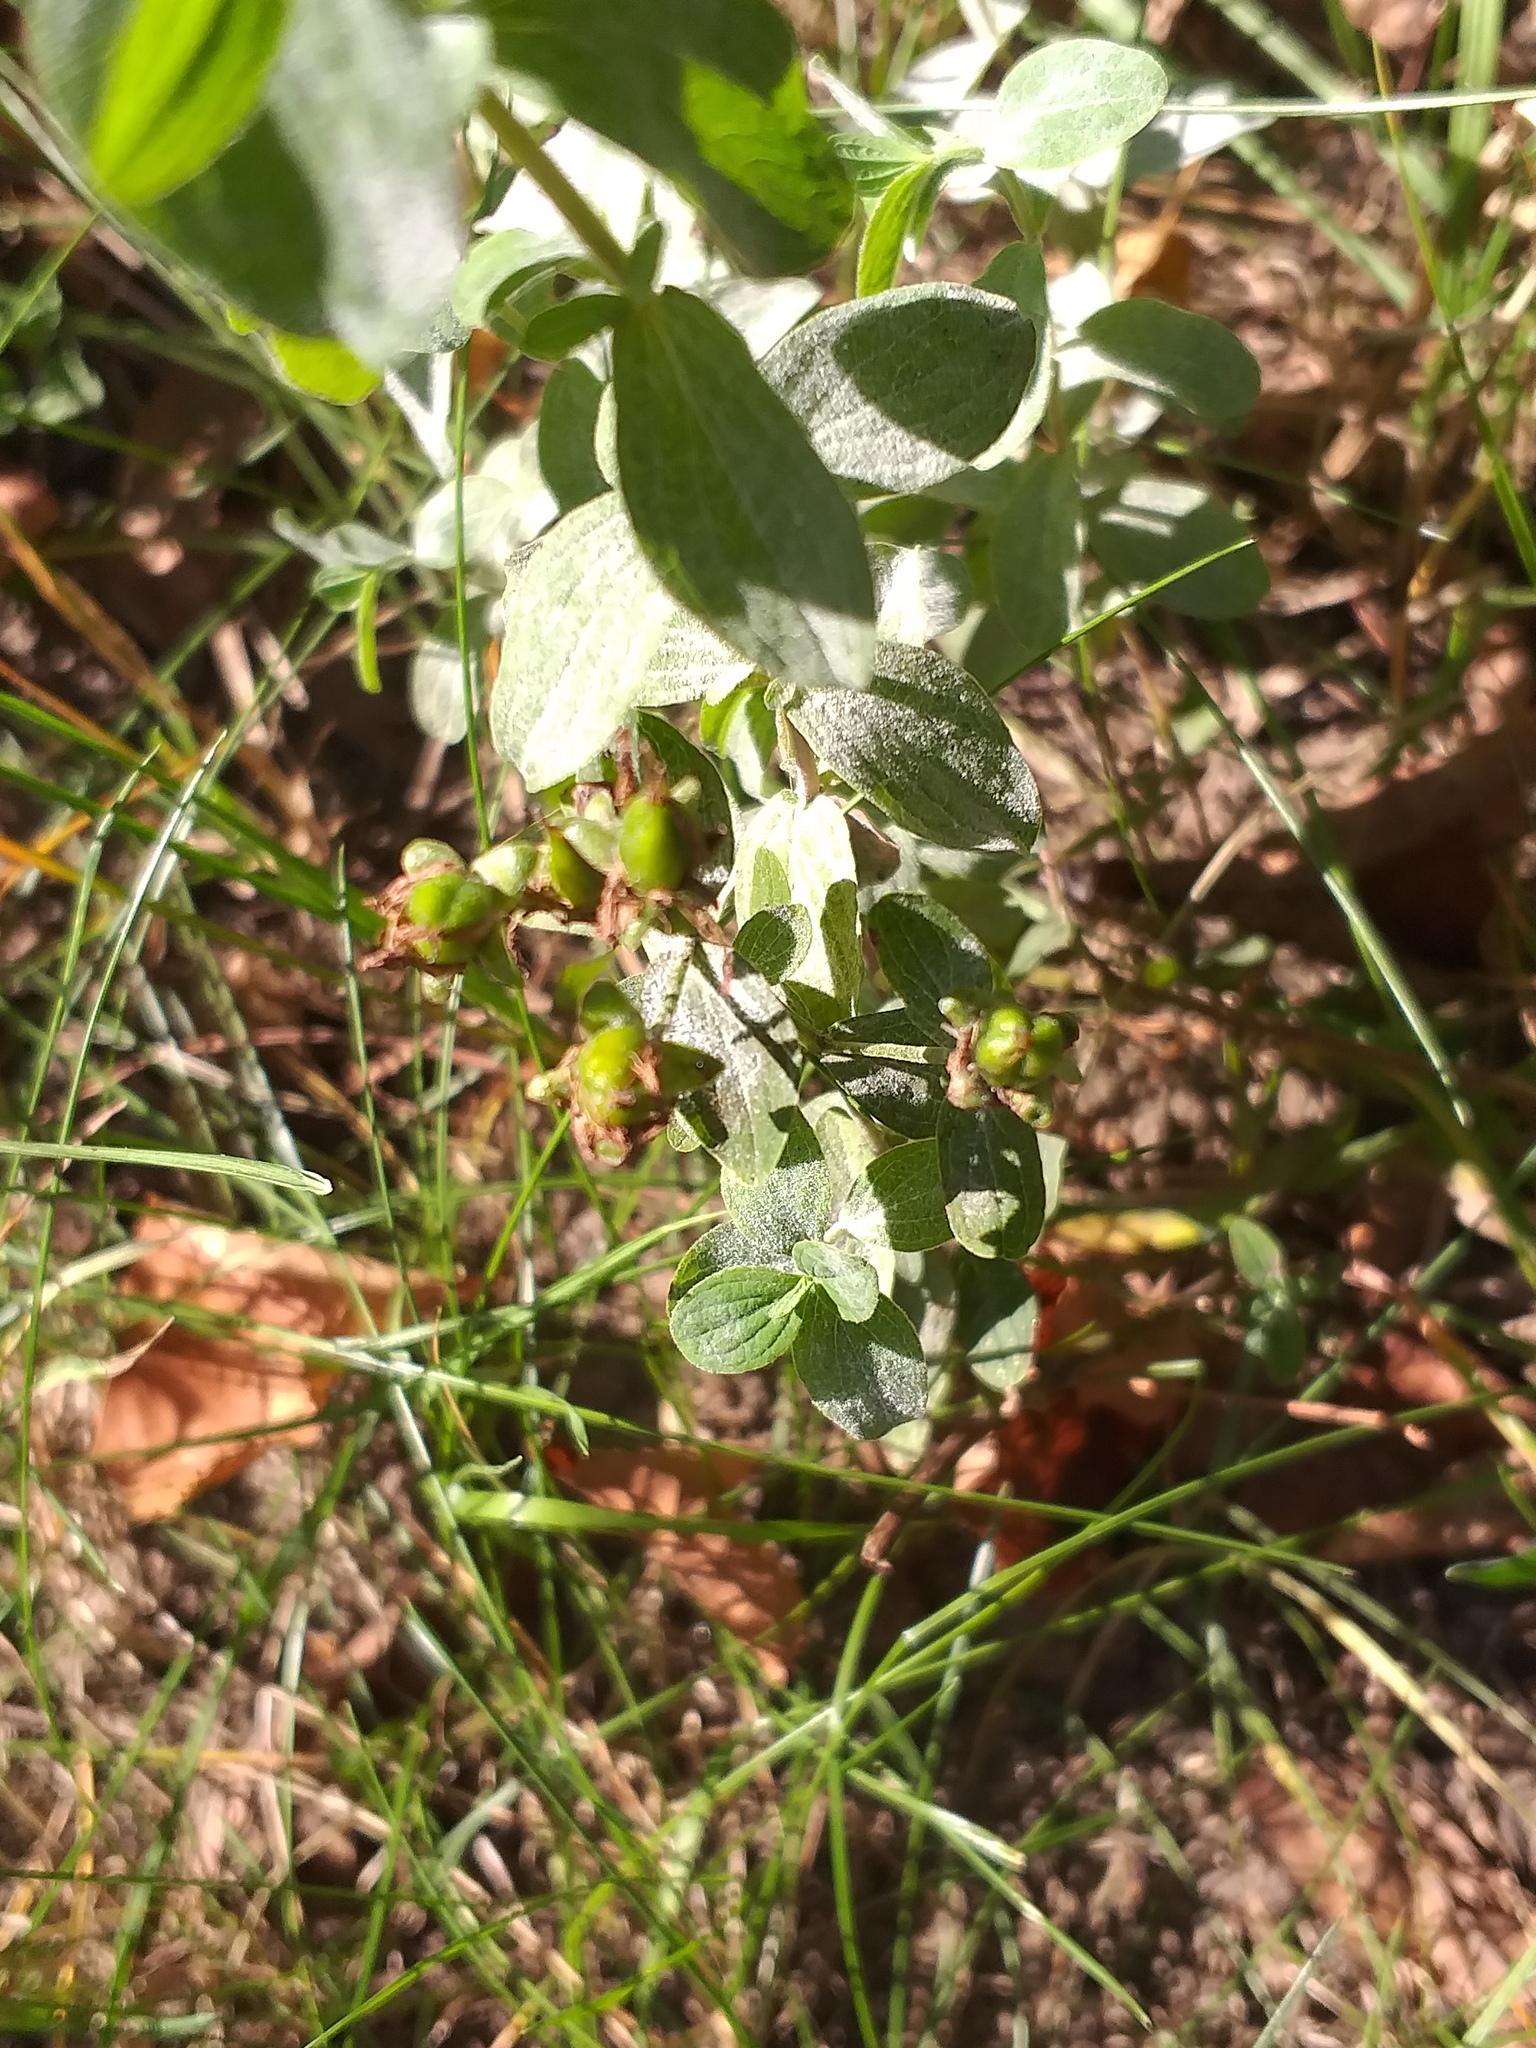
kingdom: Plantae
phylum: Tracheophyta
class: Magnoliopsida
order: Malpighiales
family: Hypericaceae
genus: Hypericum
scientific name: Hypericum maculatum
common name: Imperforate st. john's-wort
